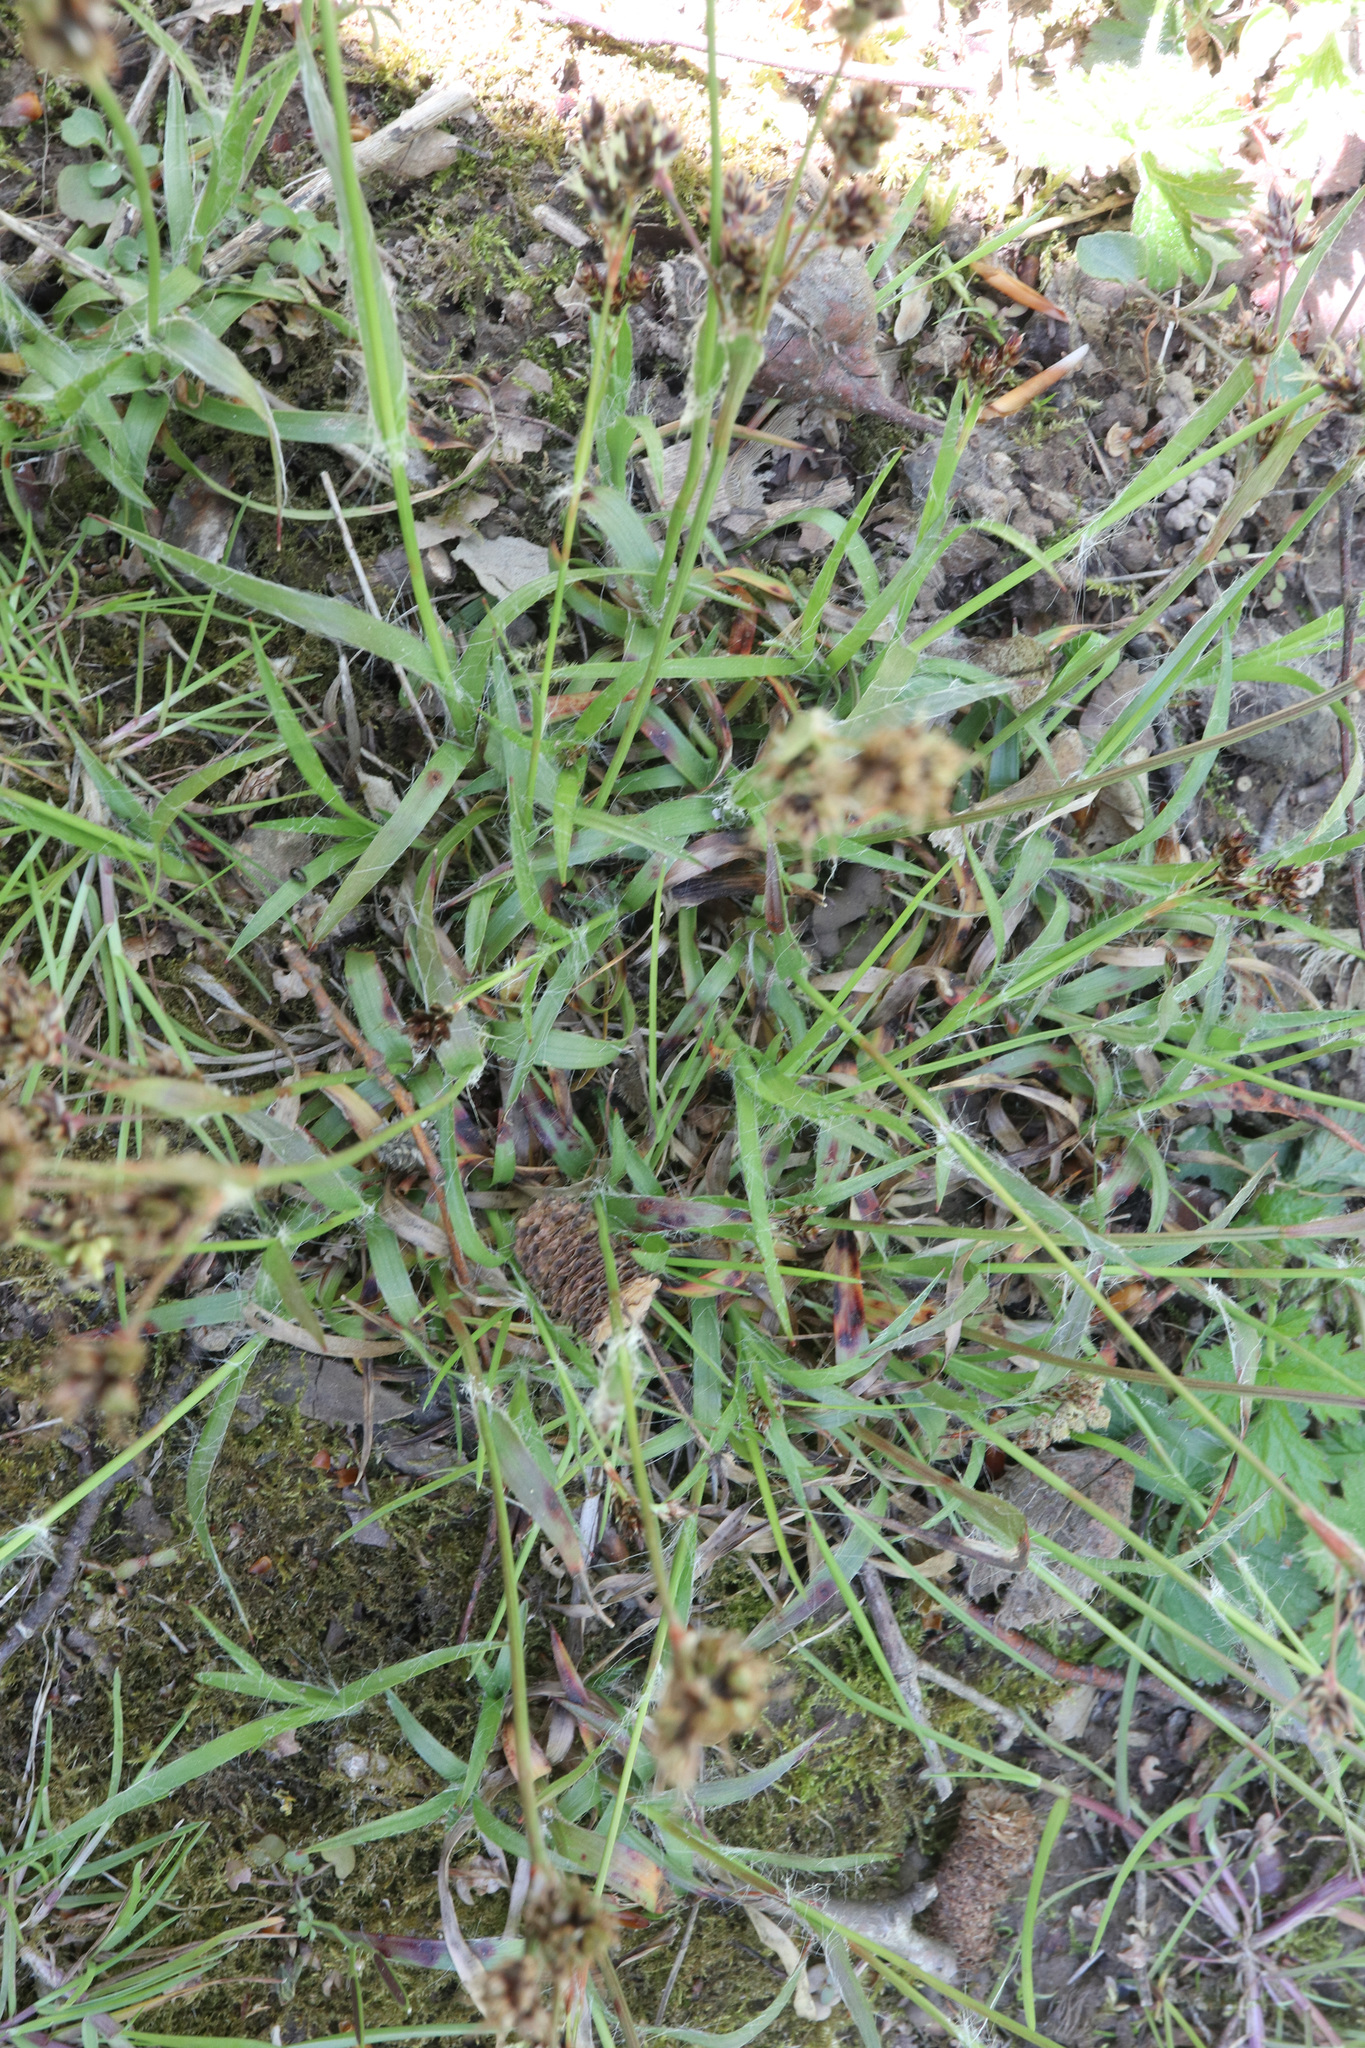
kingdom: Plantae
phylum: Tracheophyta
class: Liliopsida
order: Poales
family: Juncaceae
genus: Luzula
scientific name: Luzula campestris
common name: Field wood-rush
